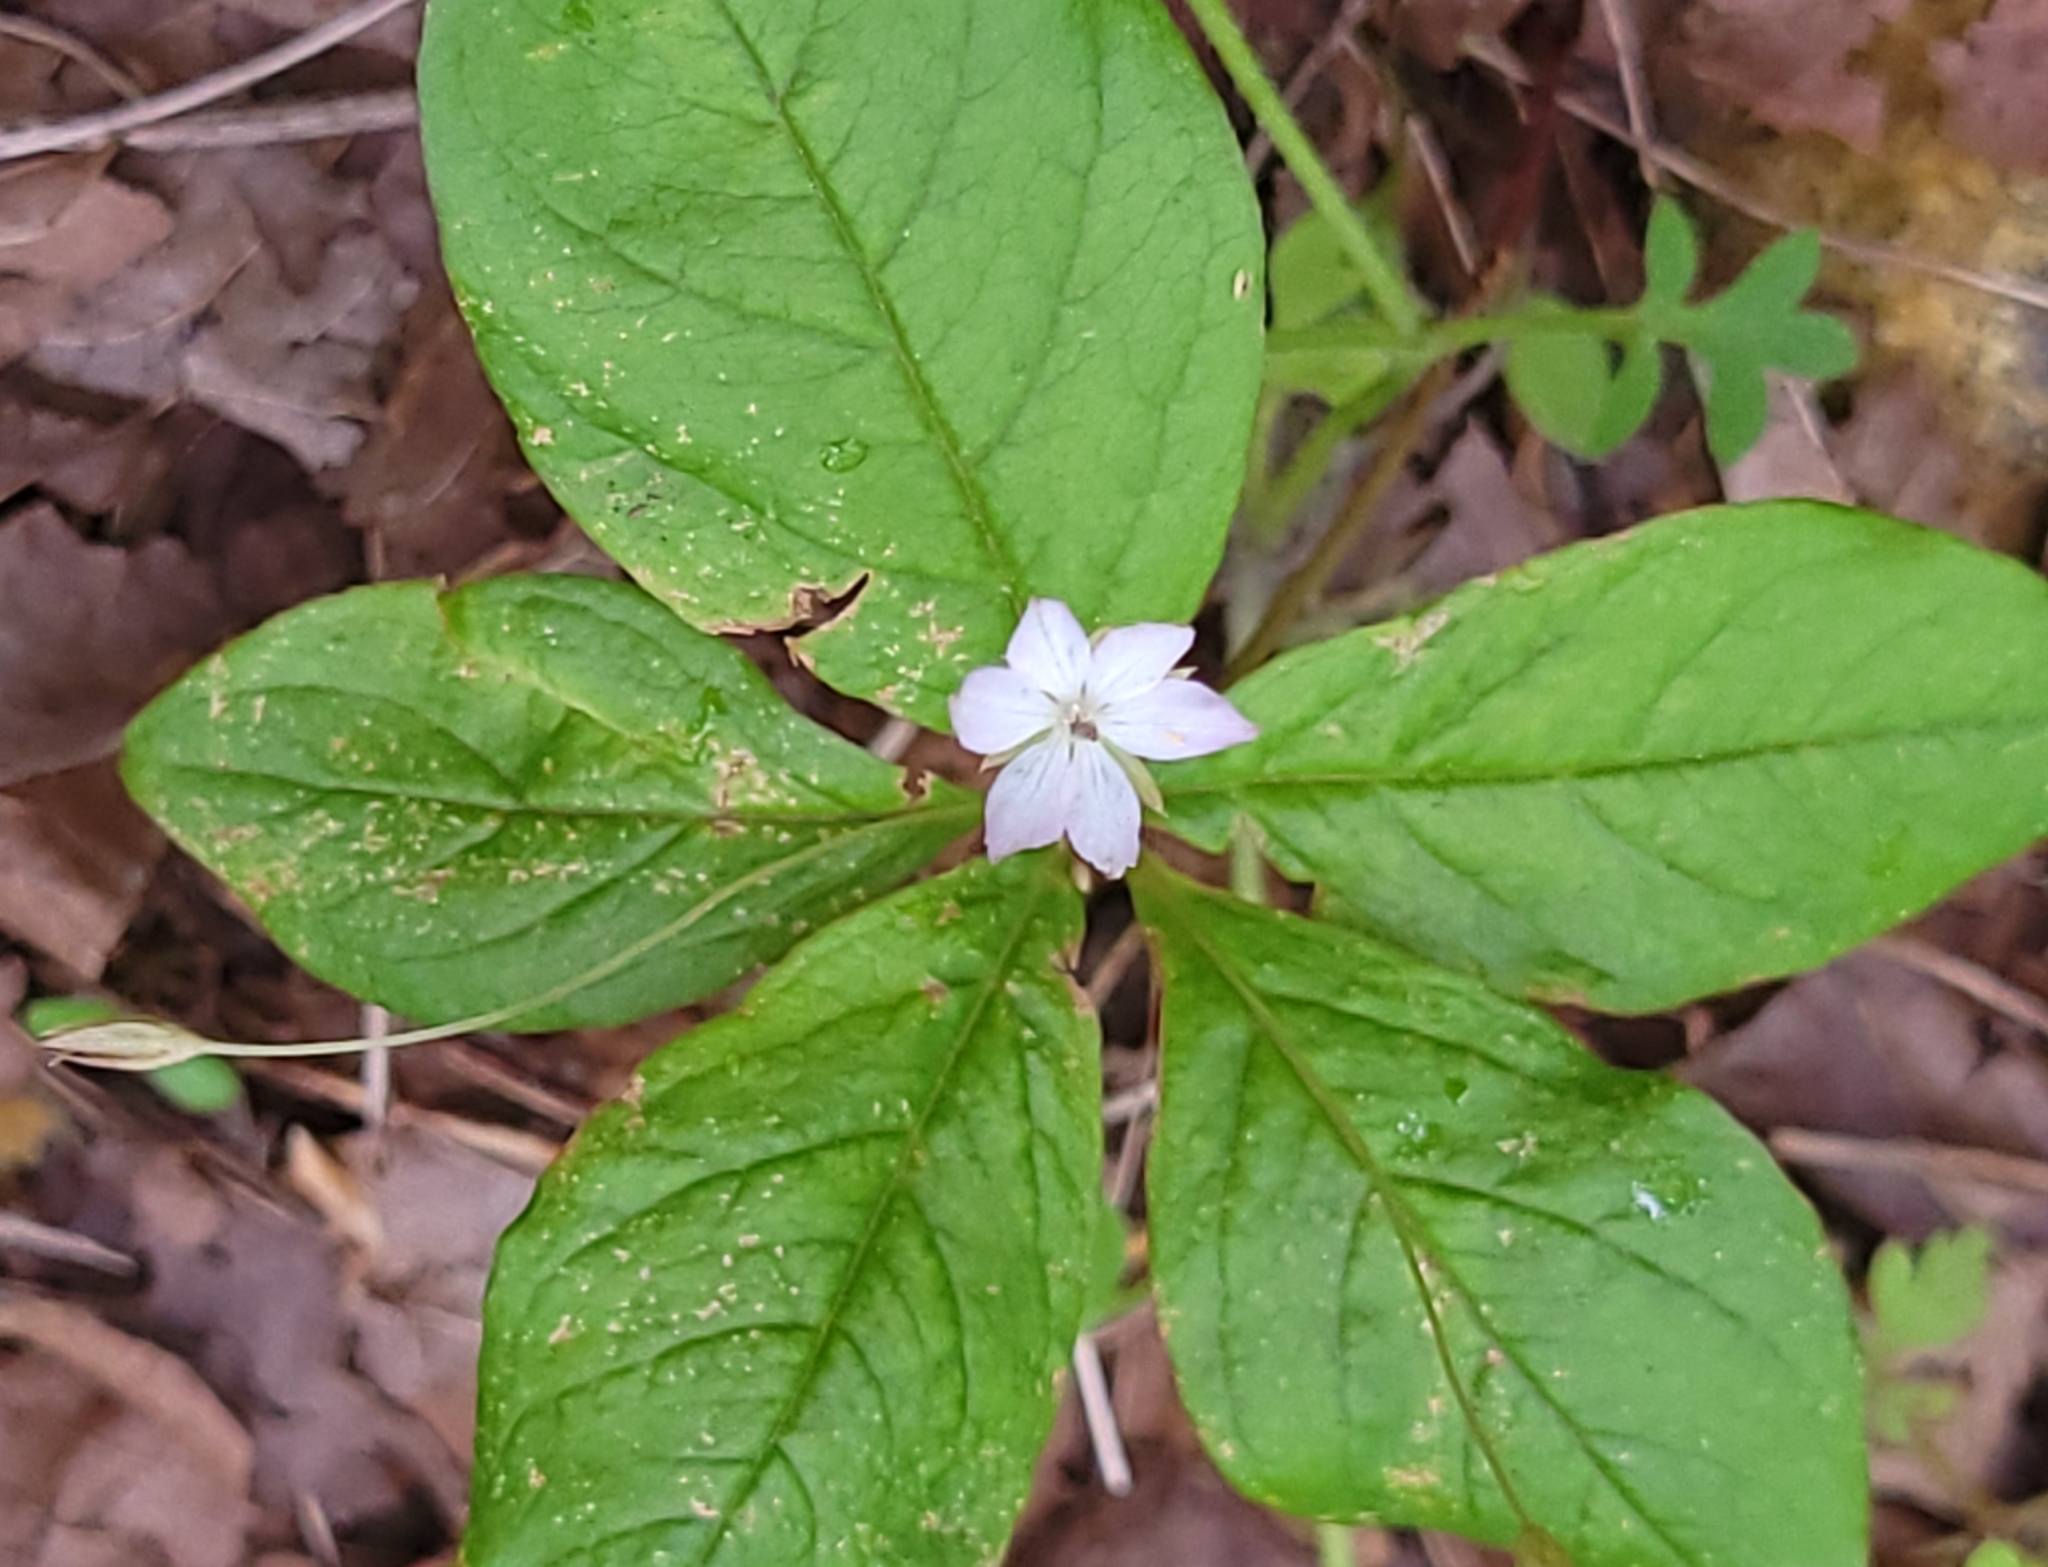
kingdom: Plantae
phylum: Tracheophyta
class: Magnoliopsida
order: Ericales
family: Primulaceae
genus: Lysimachia
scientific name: Lysimachia latifolia
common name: Pacific starflower
